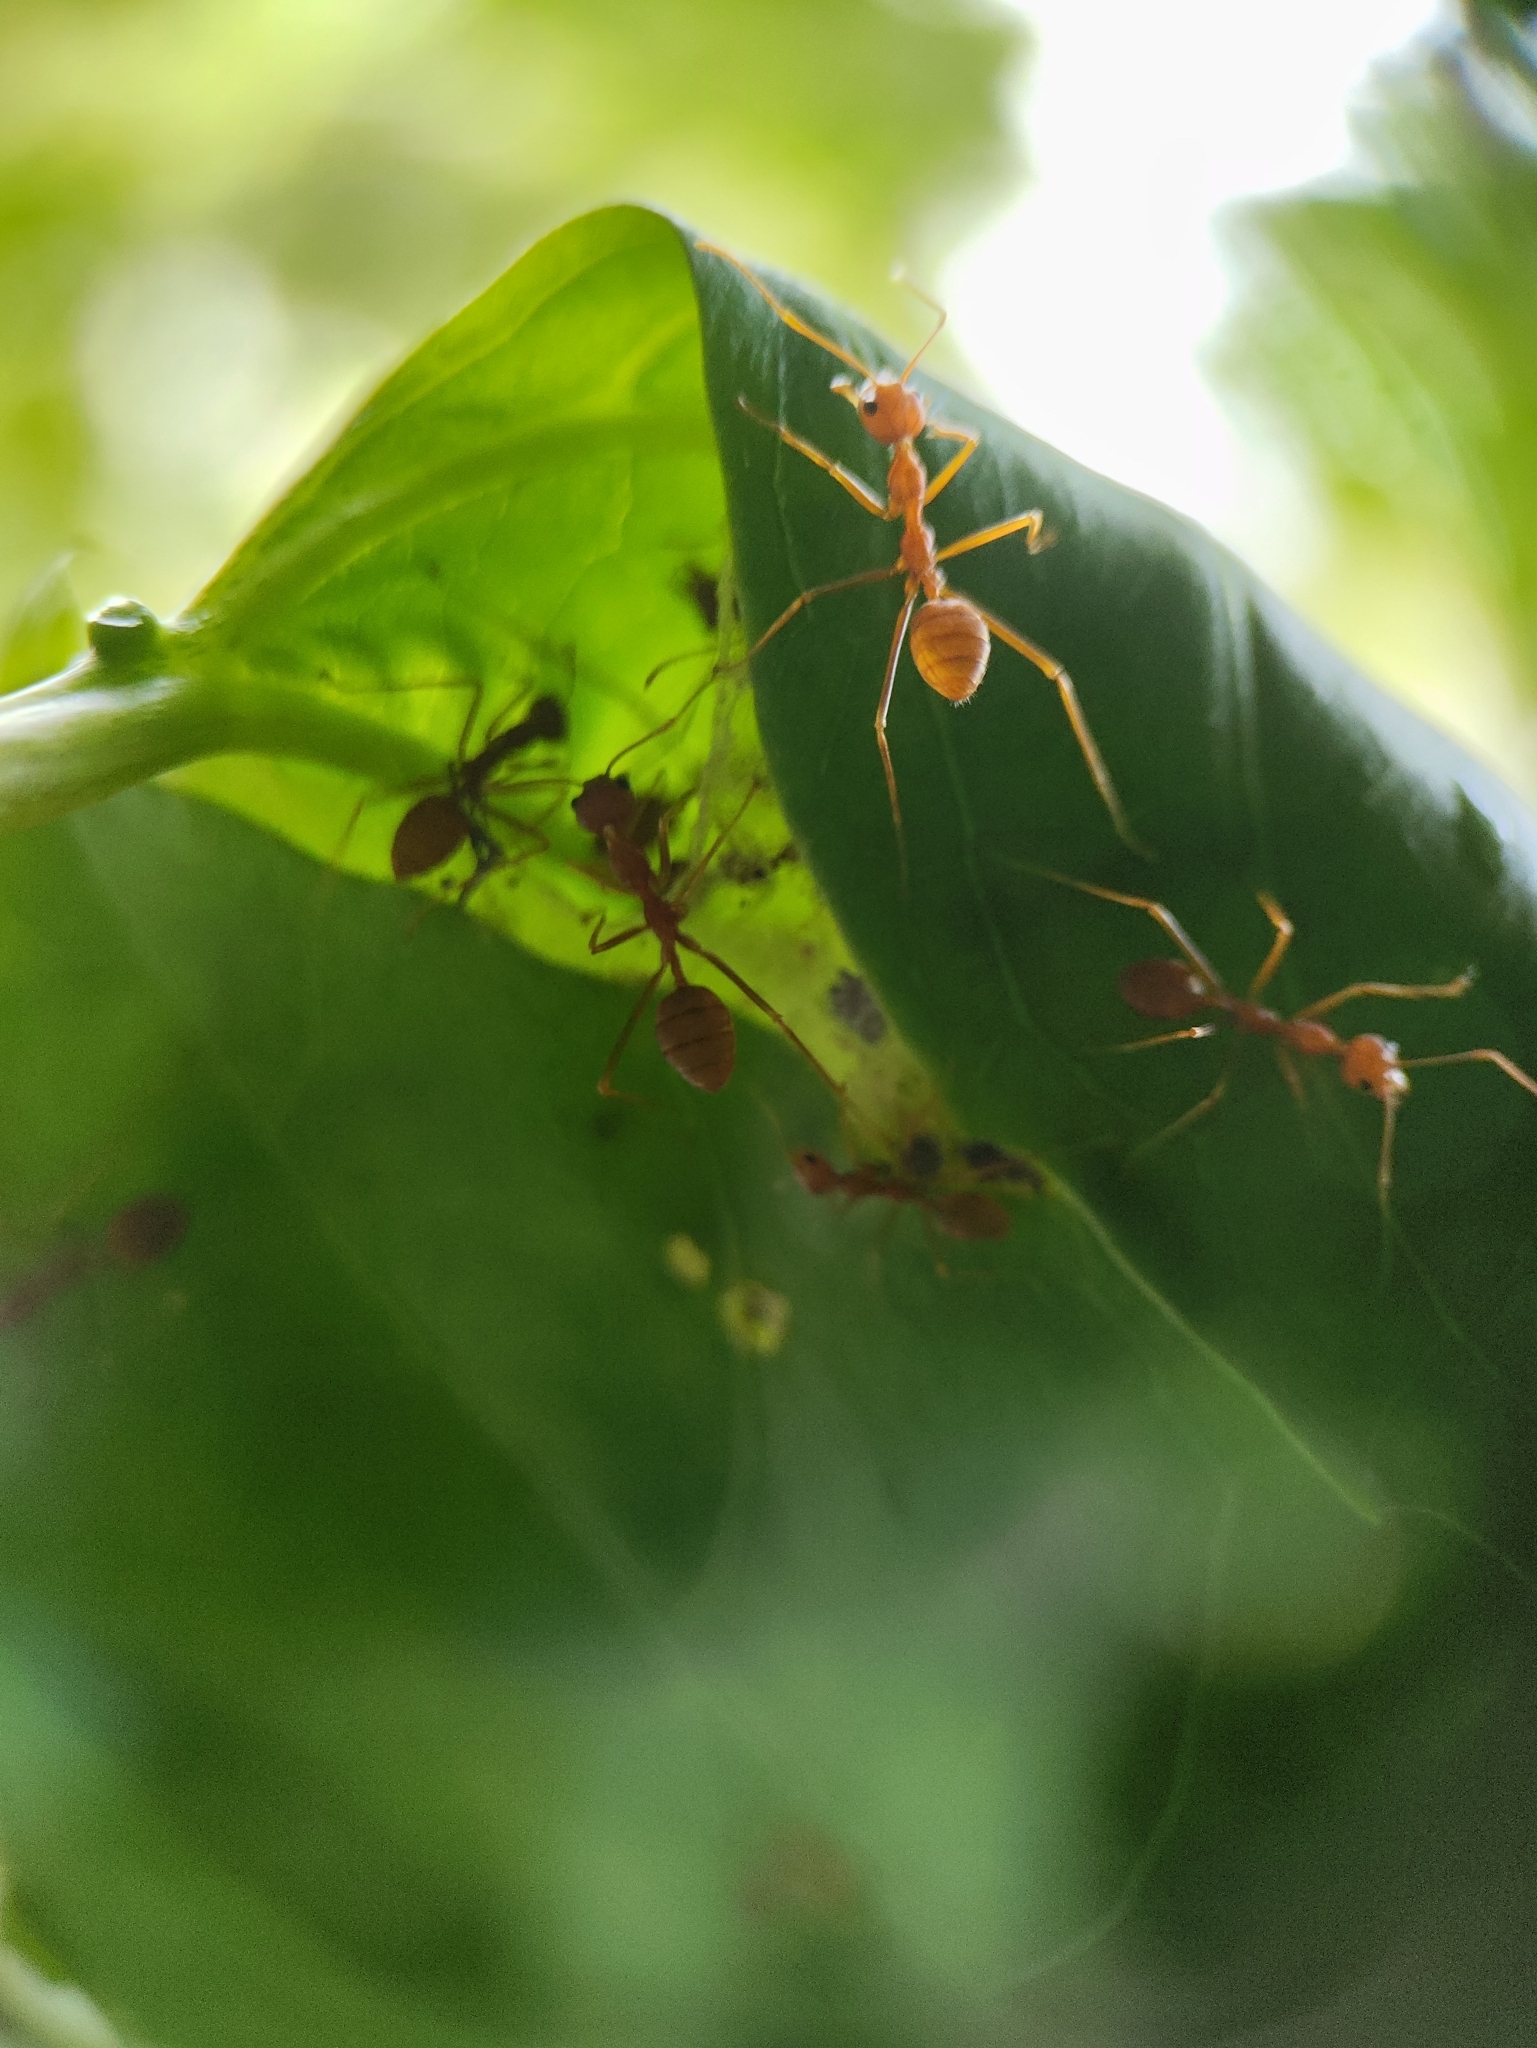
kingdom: Animalia
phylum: Arthropoda
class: Insecta
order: Hymenoptera
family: Formicidae
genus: Oecophylla
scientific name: Oecophylla smaragdina
